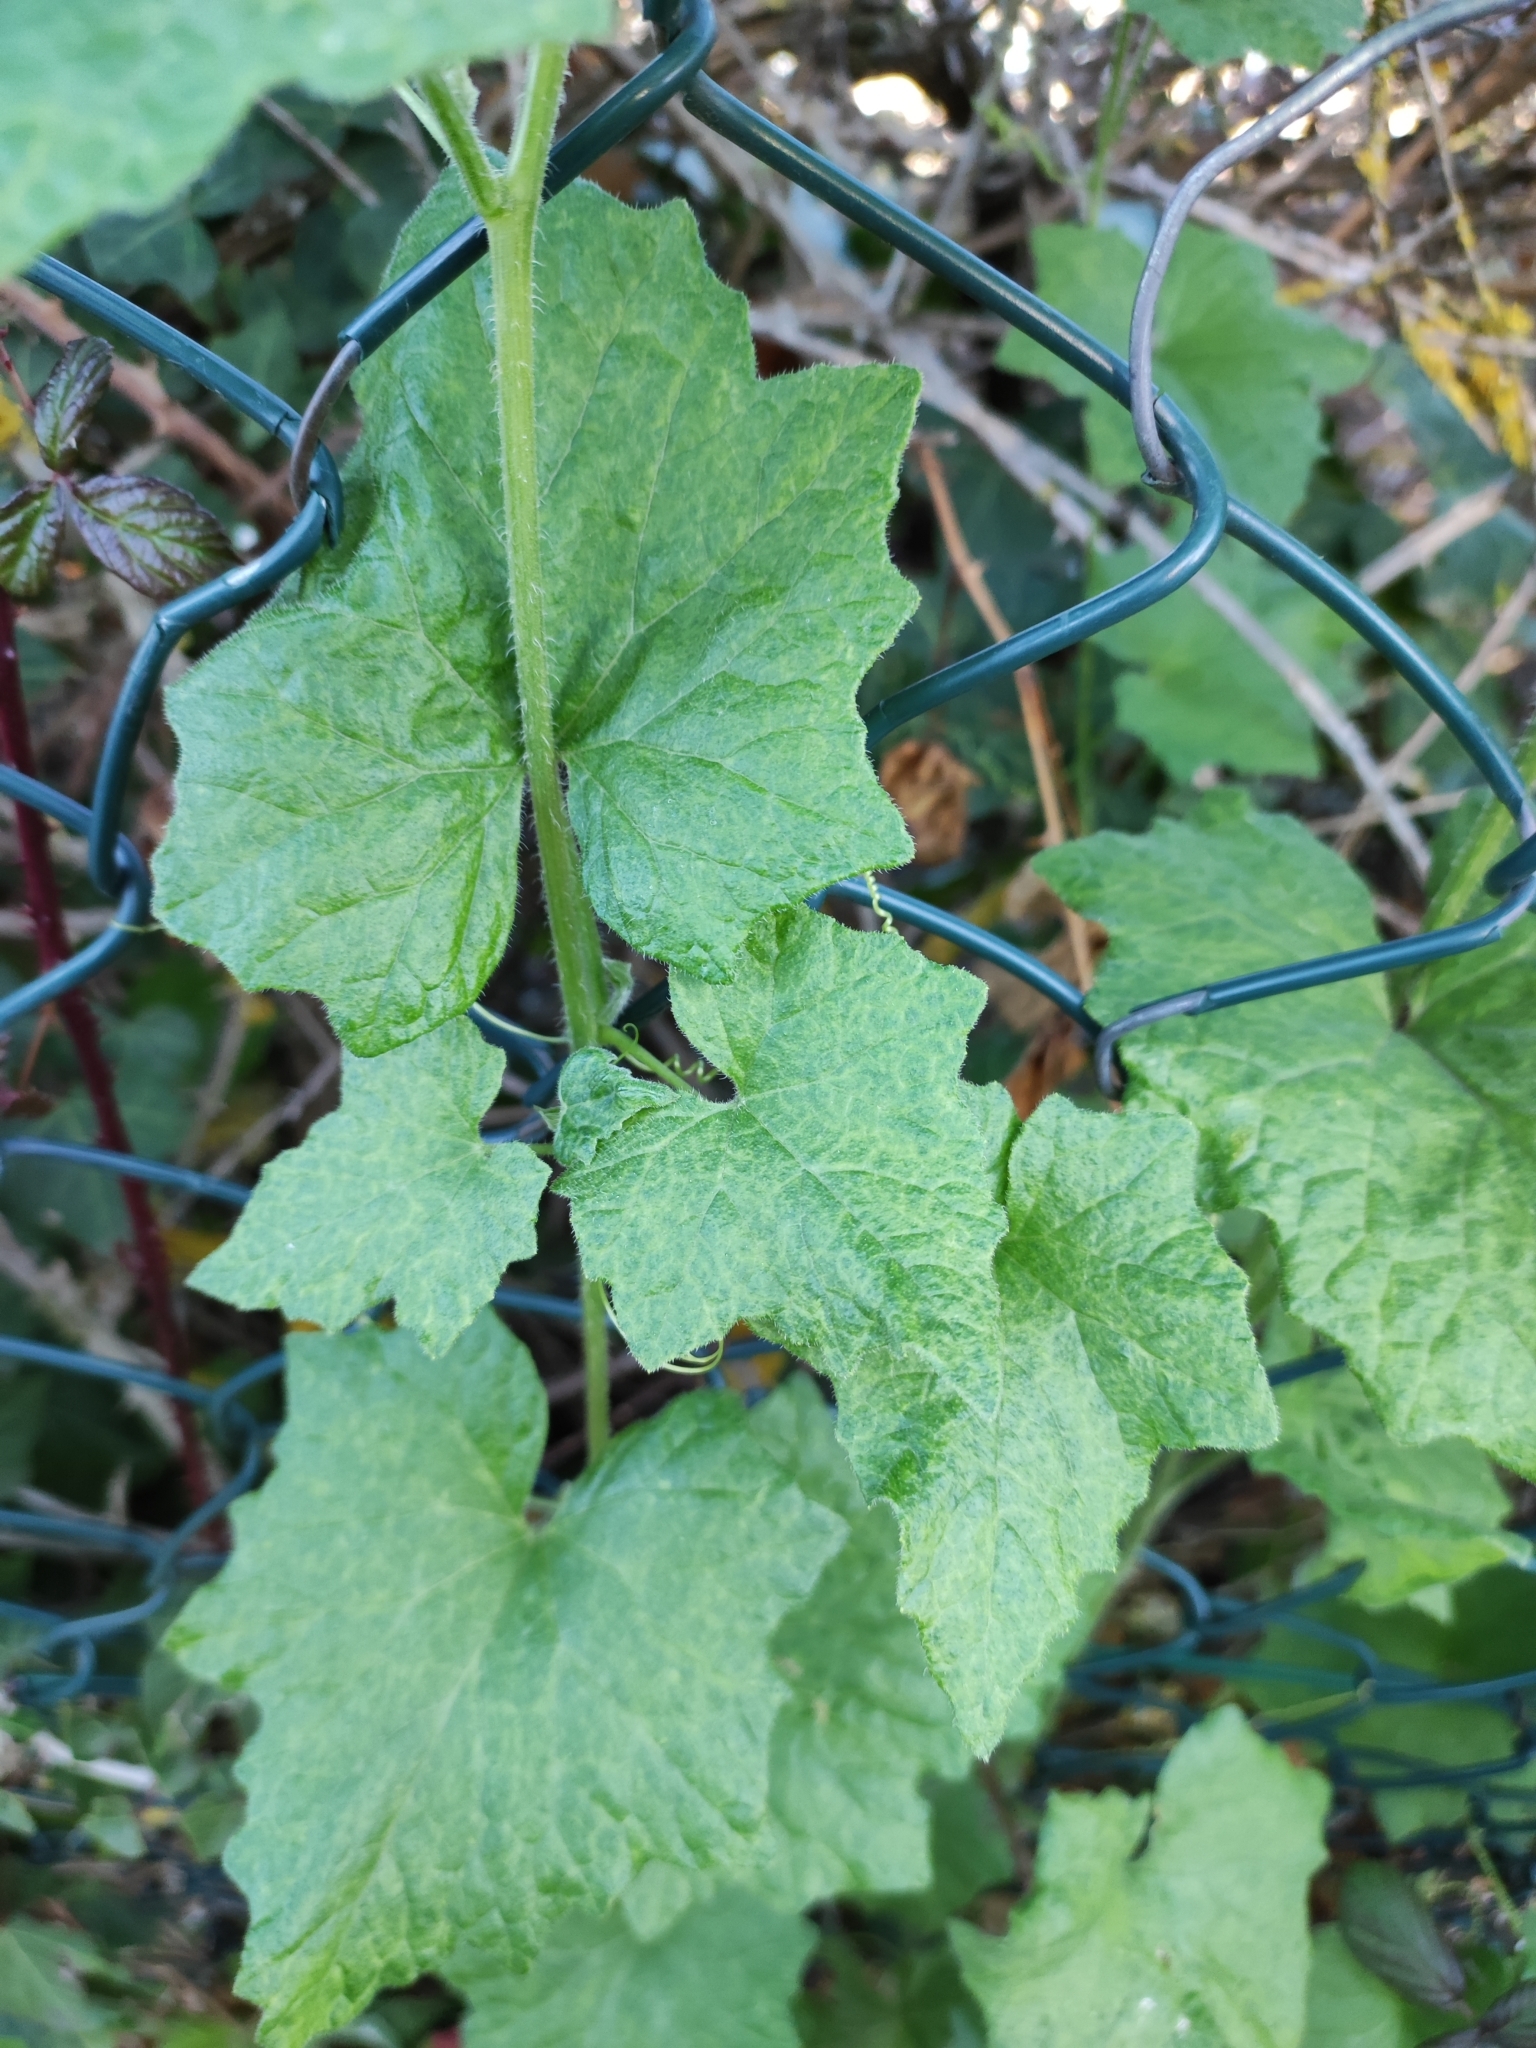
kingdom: Plantae
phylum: Tracheophyta
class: Magnoliopsida
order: Cucurbitales
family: Cucurbitaceae
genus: Bryonia
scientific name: Bryonia dioica
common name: White bryony
